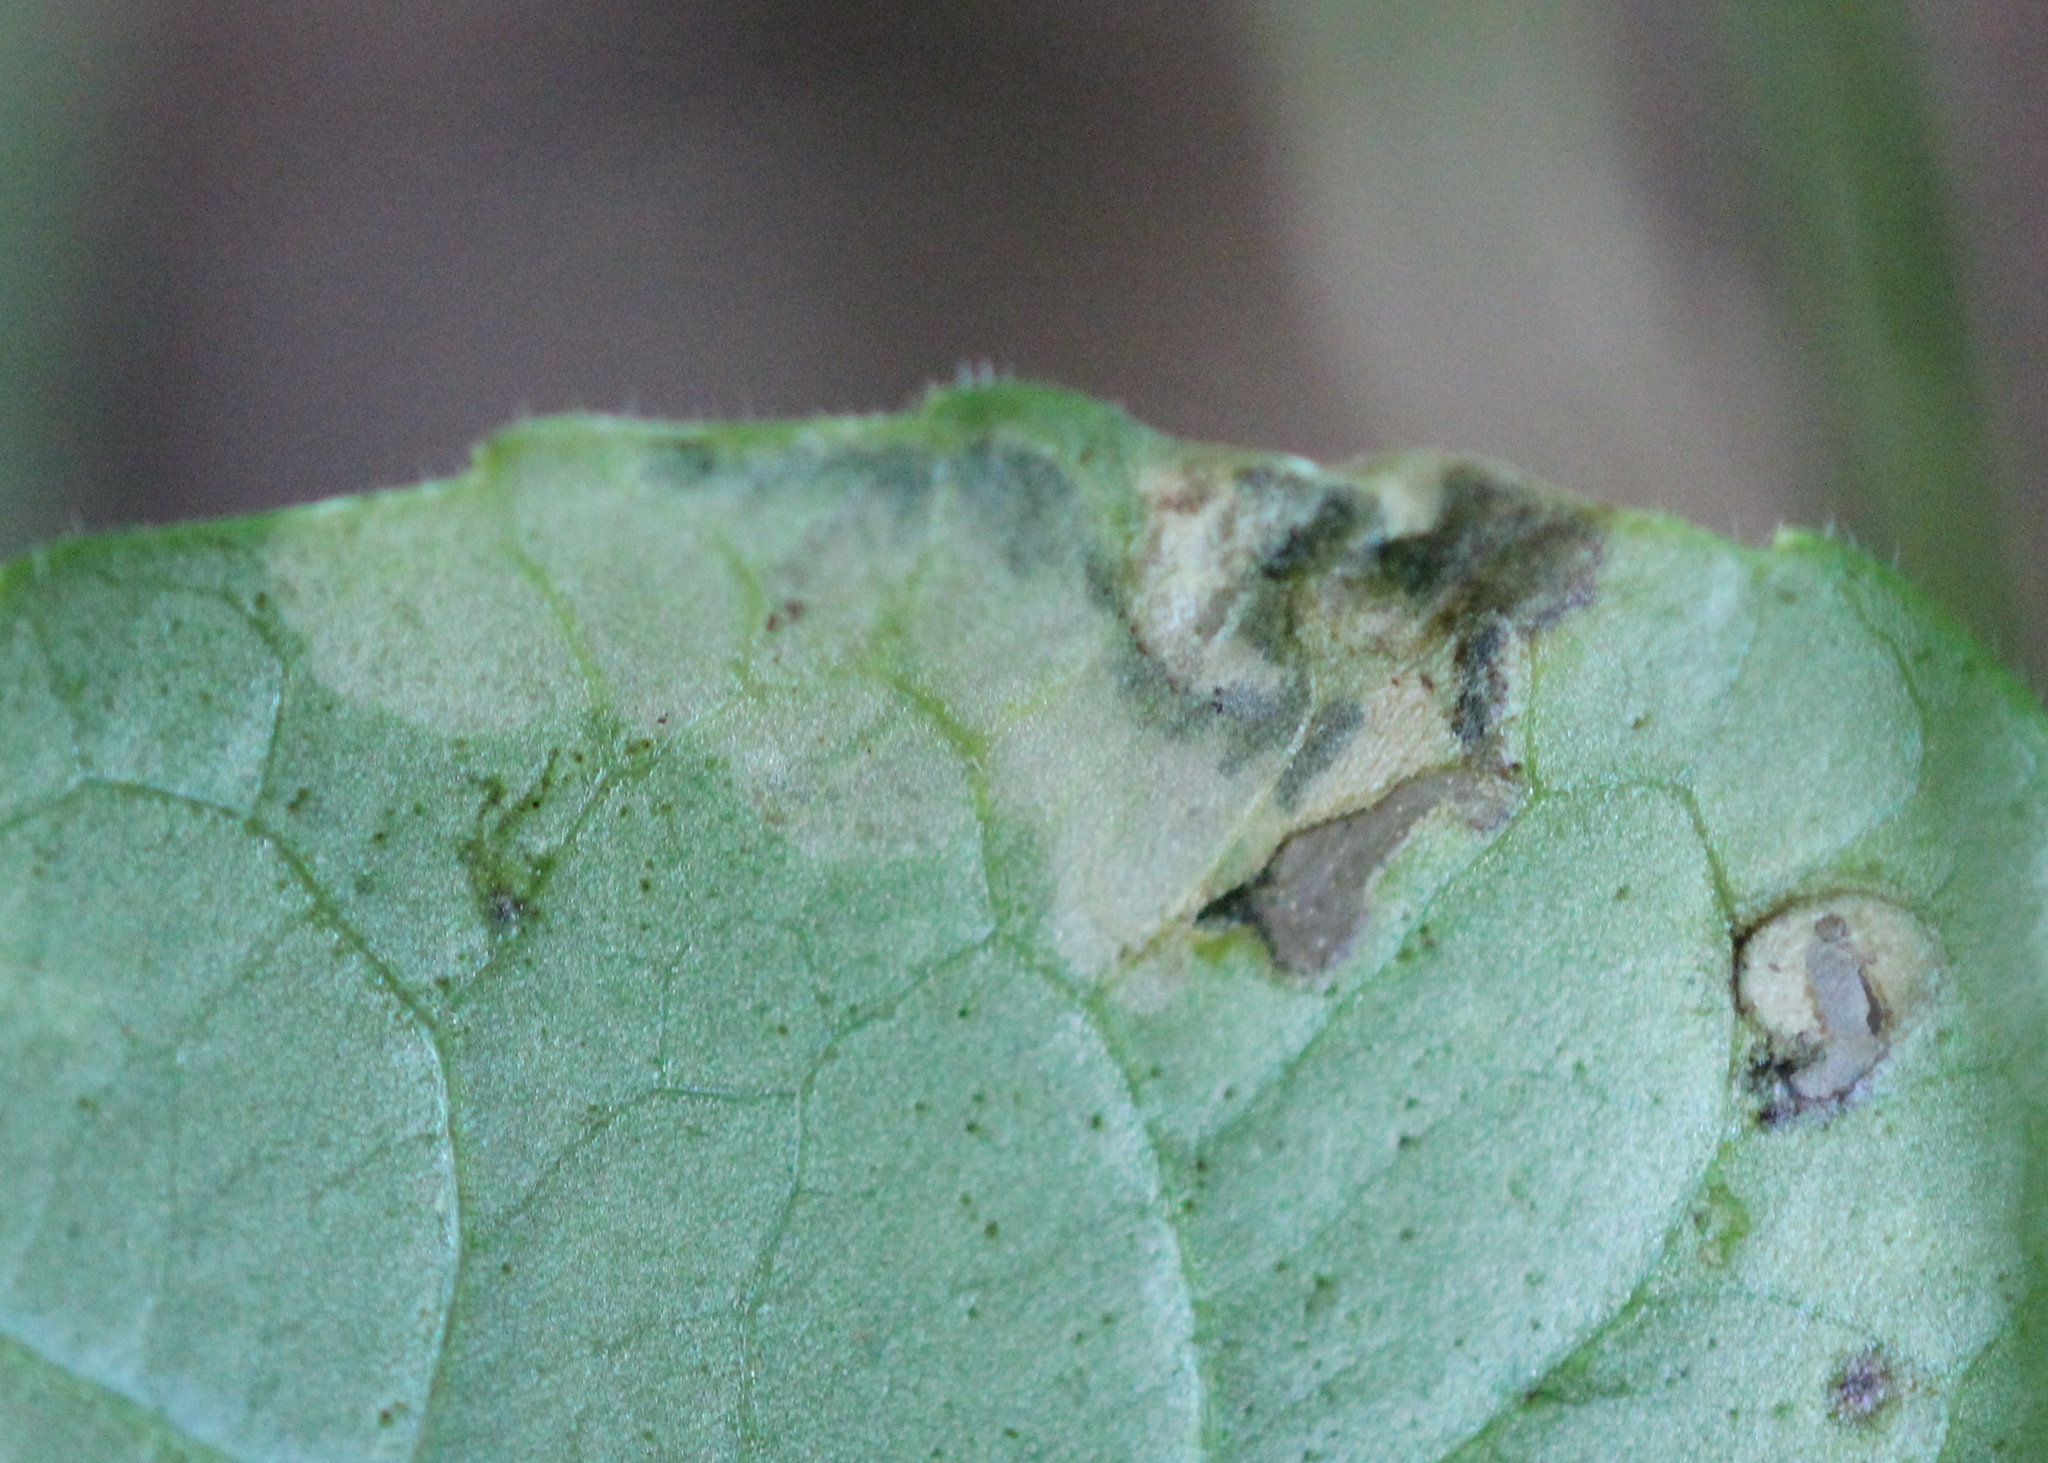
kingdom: Animalia
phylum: Arthropoda
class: Insecta
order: Hymenoptera
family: Tenthredinidae
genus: Nefusa
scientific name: Nefusa ambigua
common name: Violet leafmining sawfly
